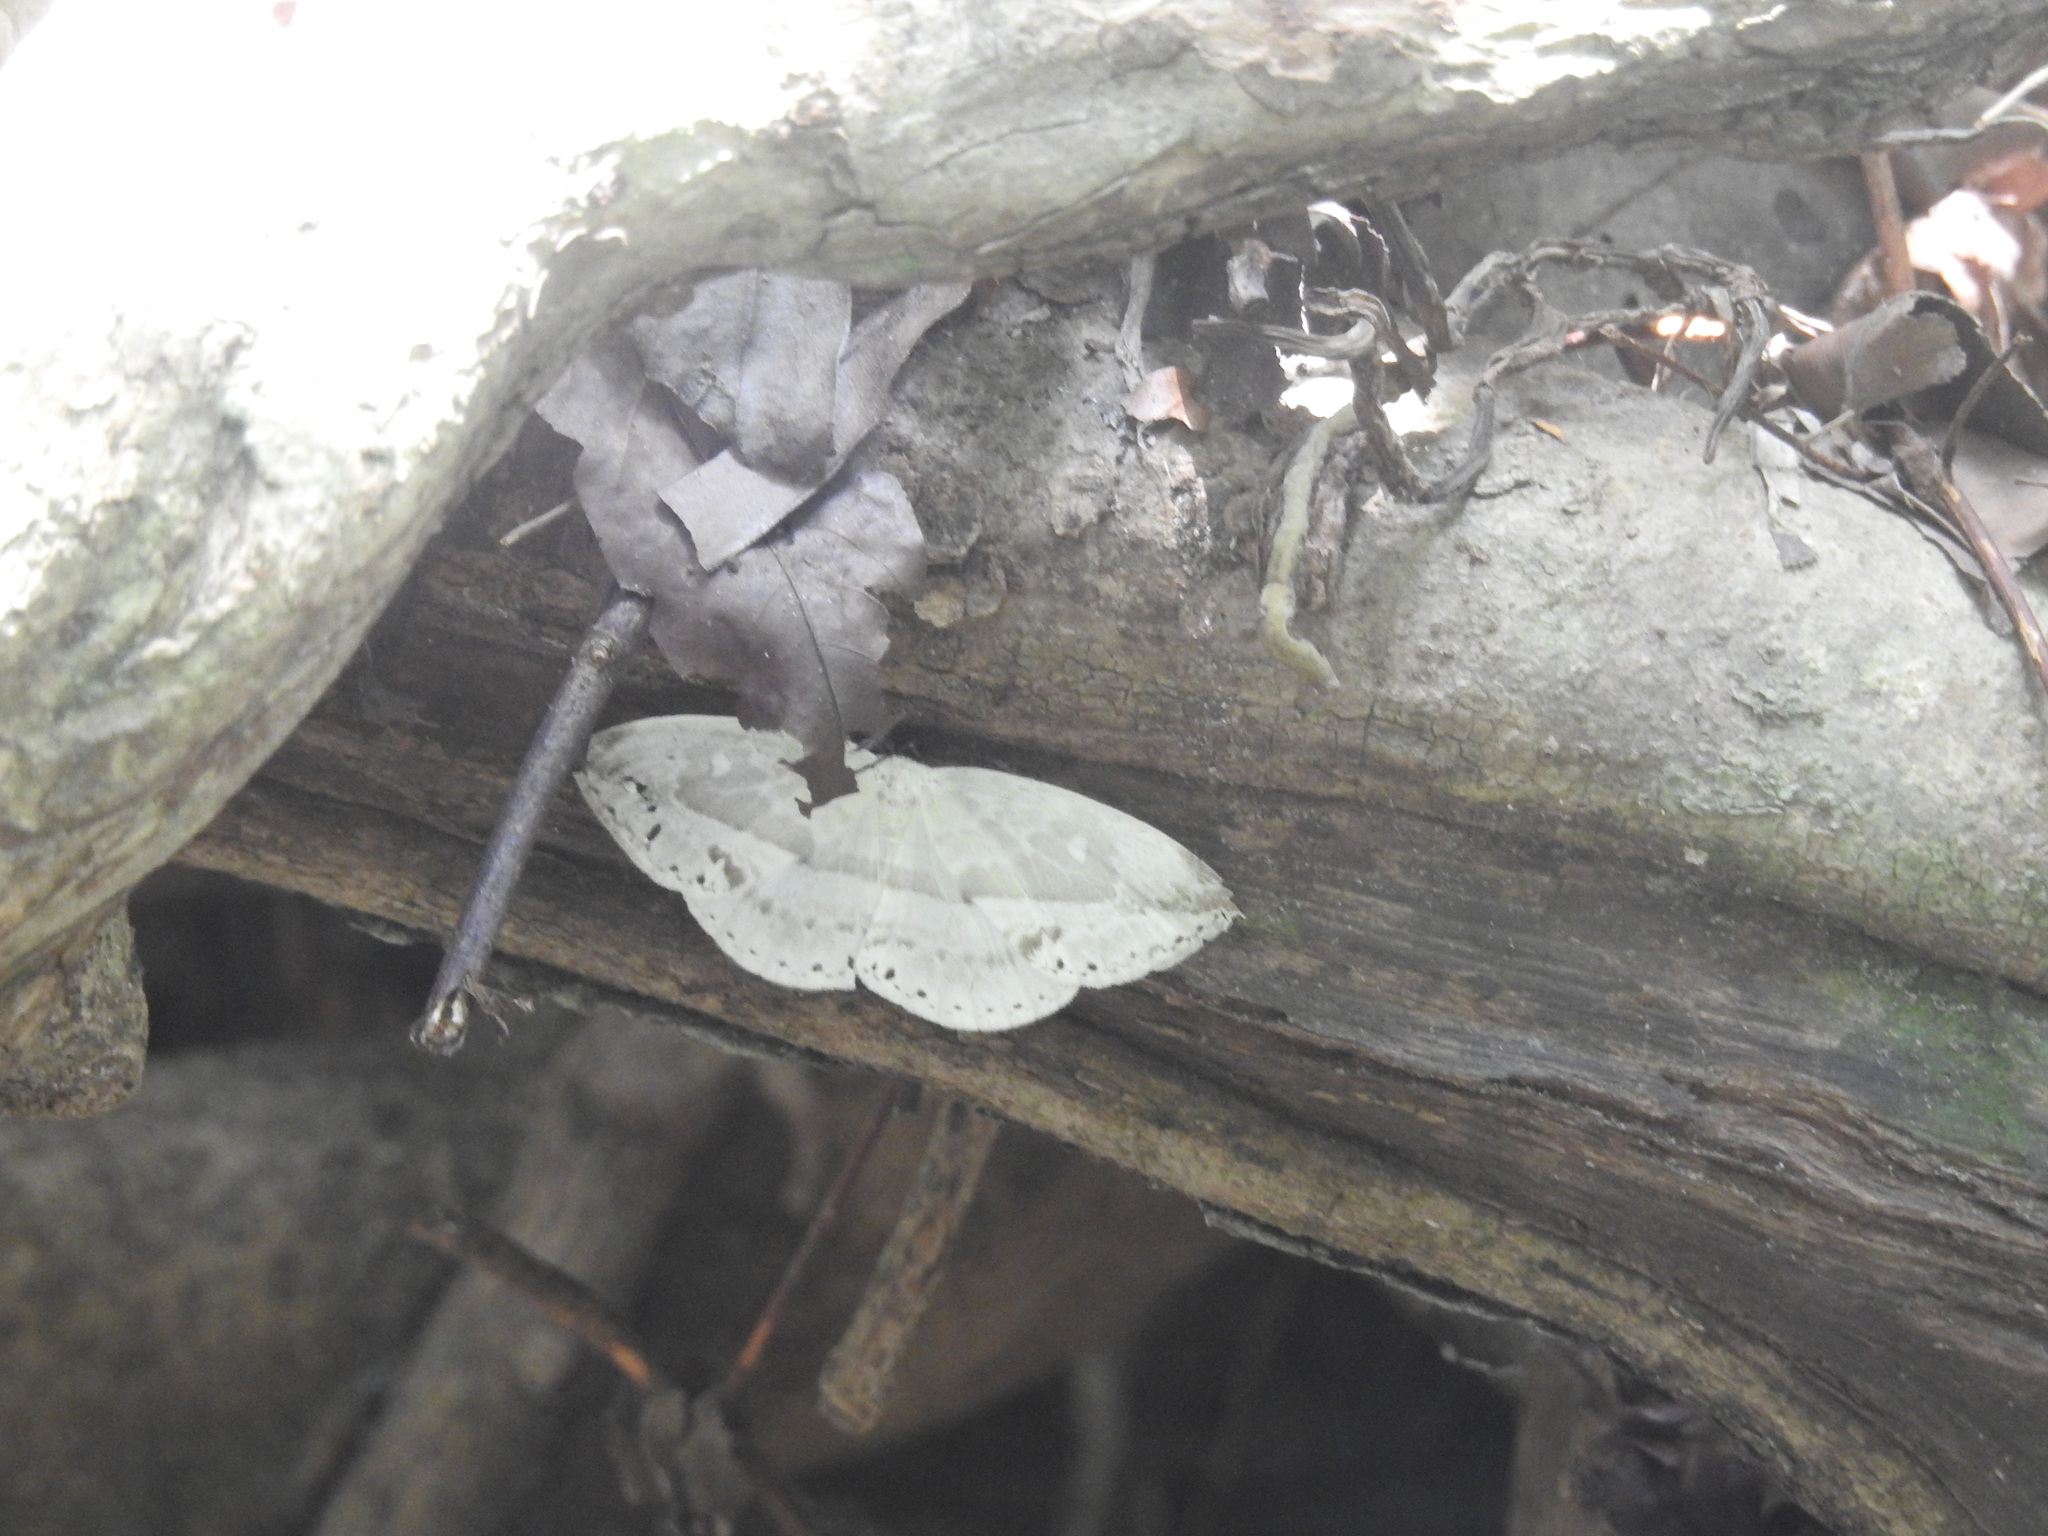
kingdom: Animalia
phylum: Arthropoda
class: Insecta
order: Lepidoptera
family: Drepanidae
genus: Cyclidia
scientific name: Cyclidia substigmaria
